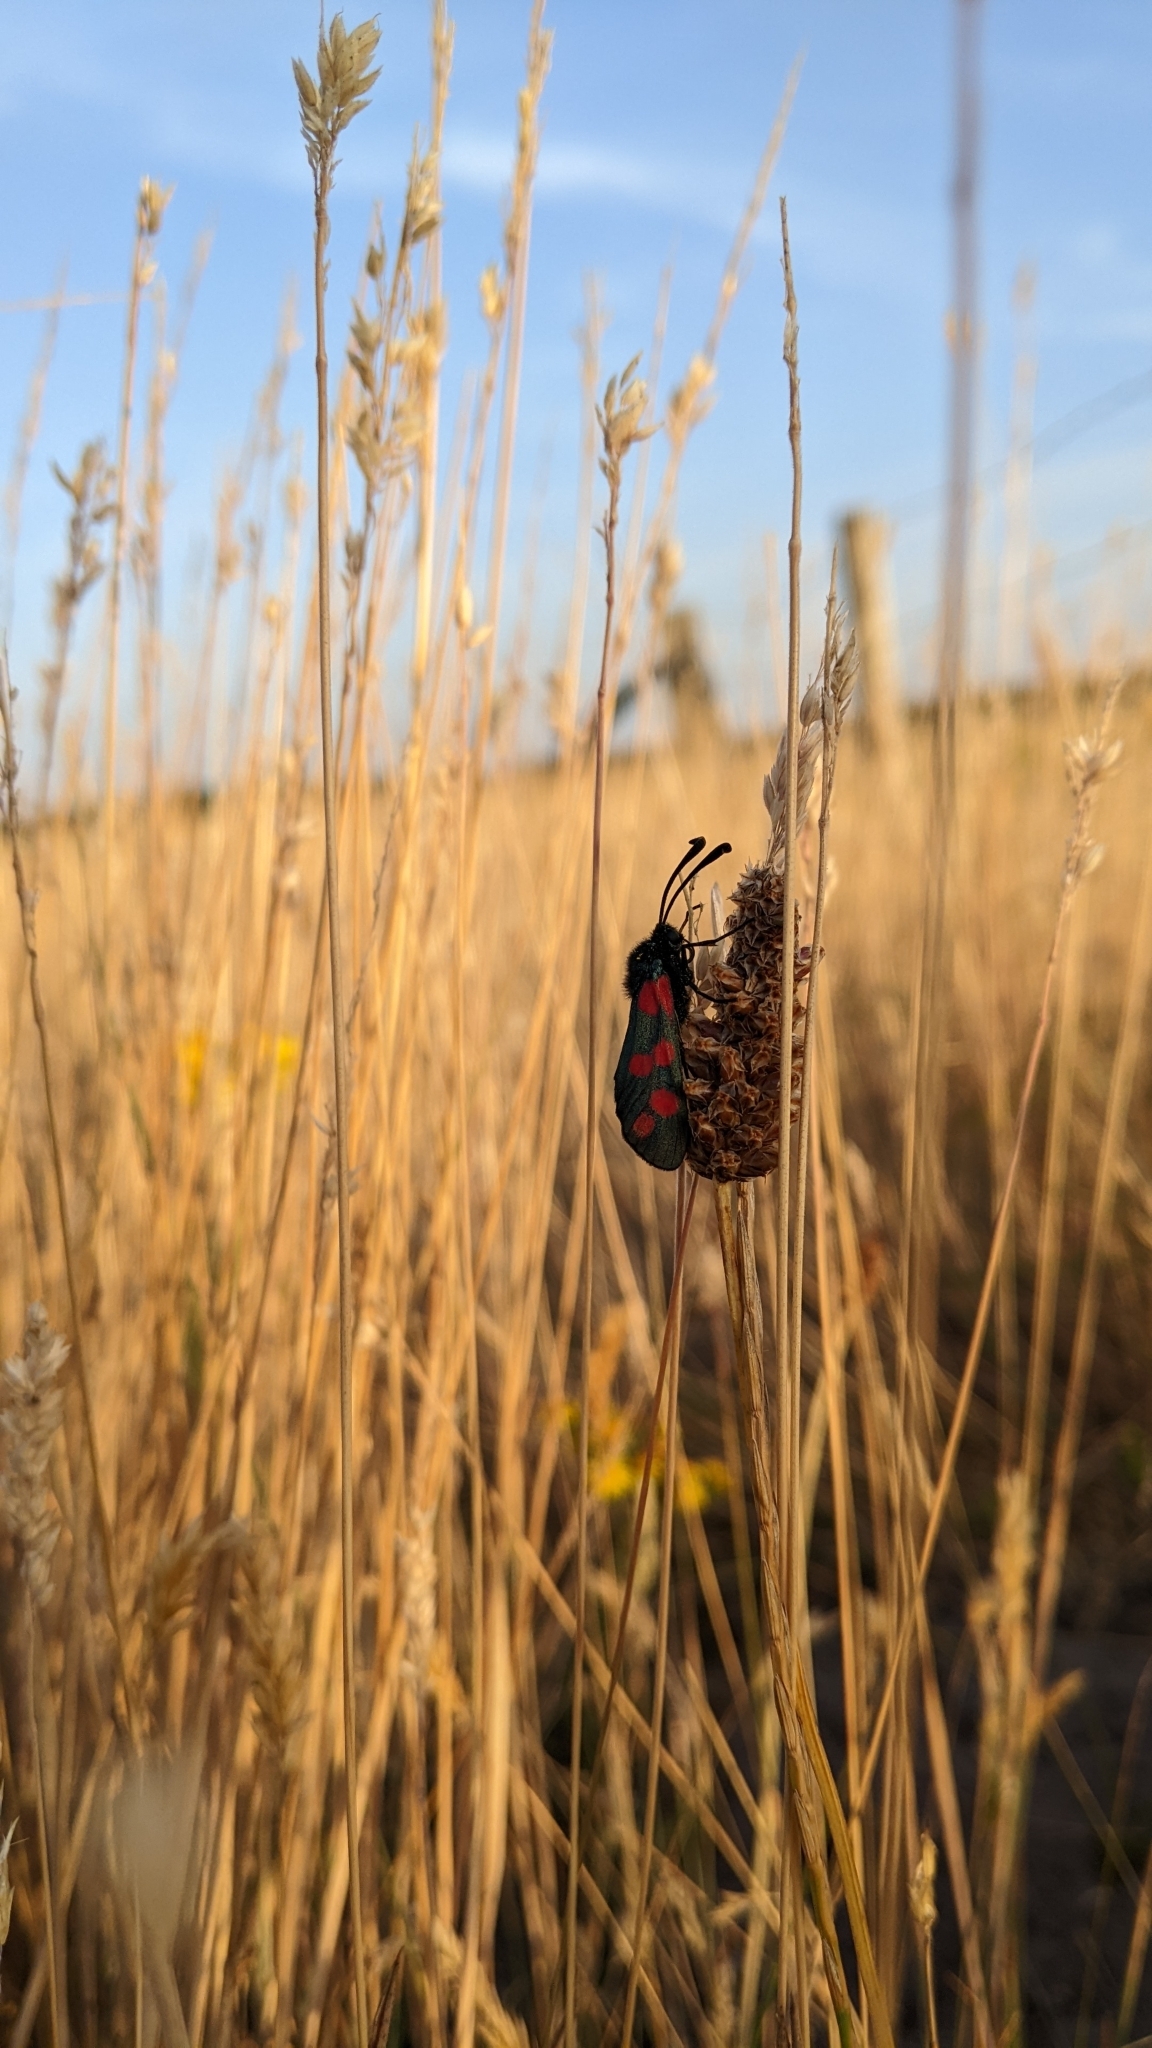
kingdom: Animalia
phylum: Arthropoda
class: Insecta
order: Lepidoptera
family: Zygaenidae
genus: Zygaena
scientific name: Zygaena filipendulae
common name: Six-spot burnet
